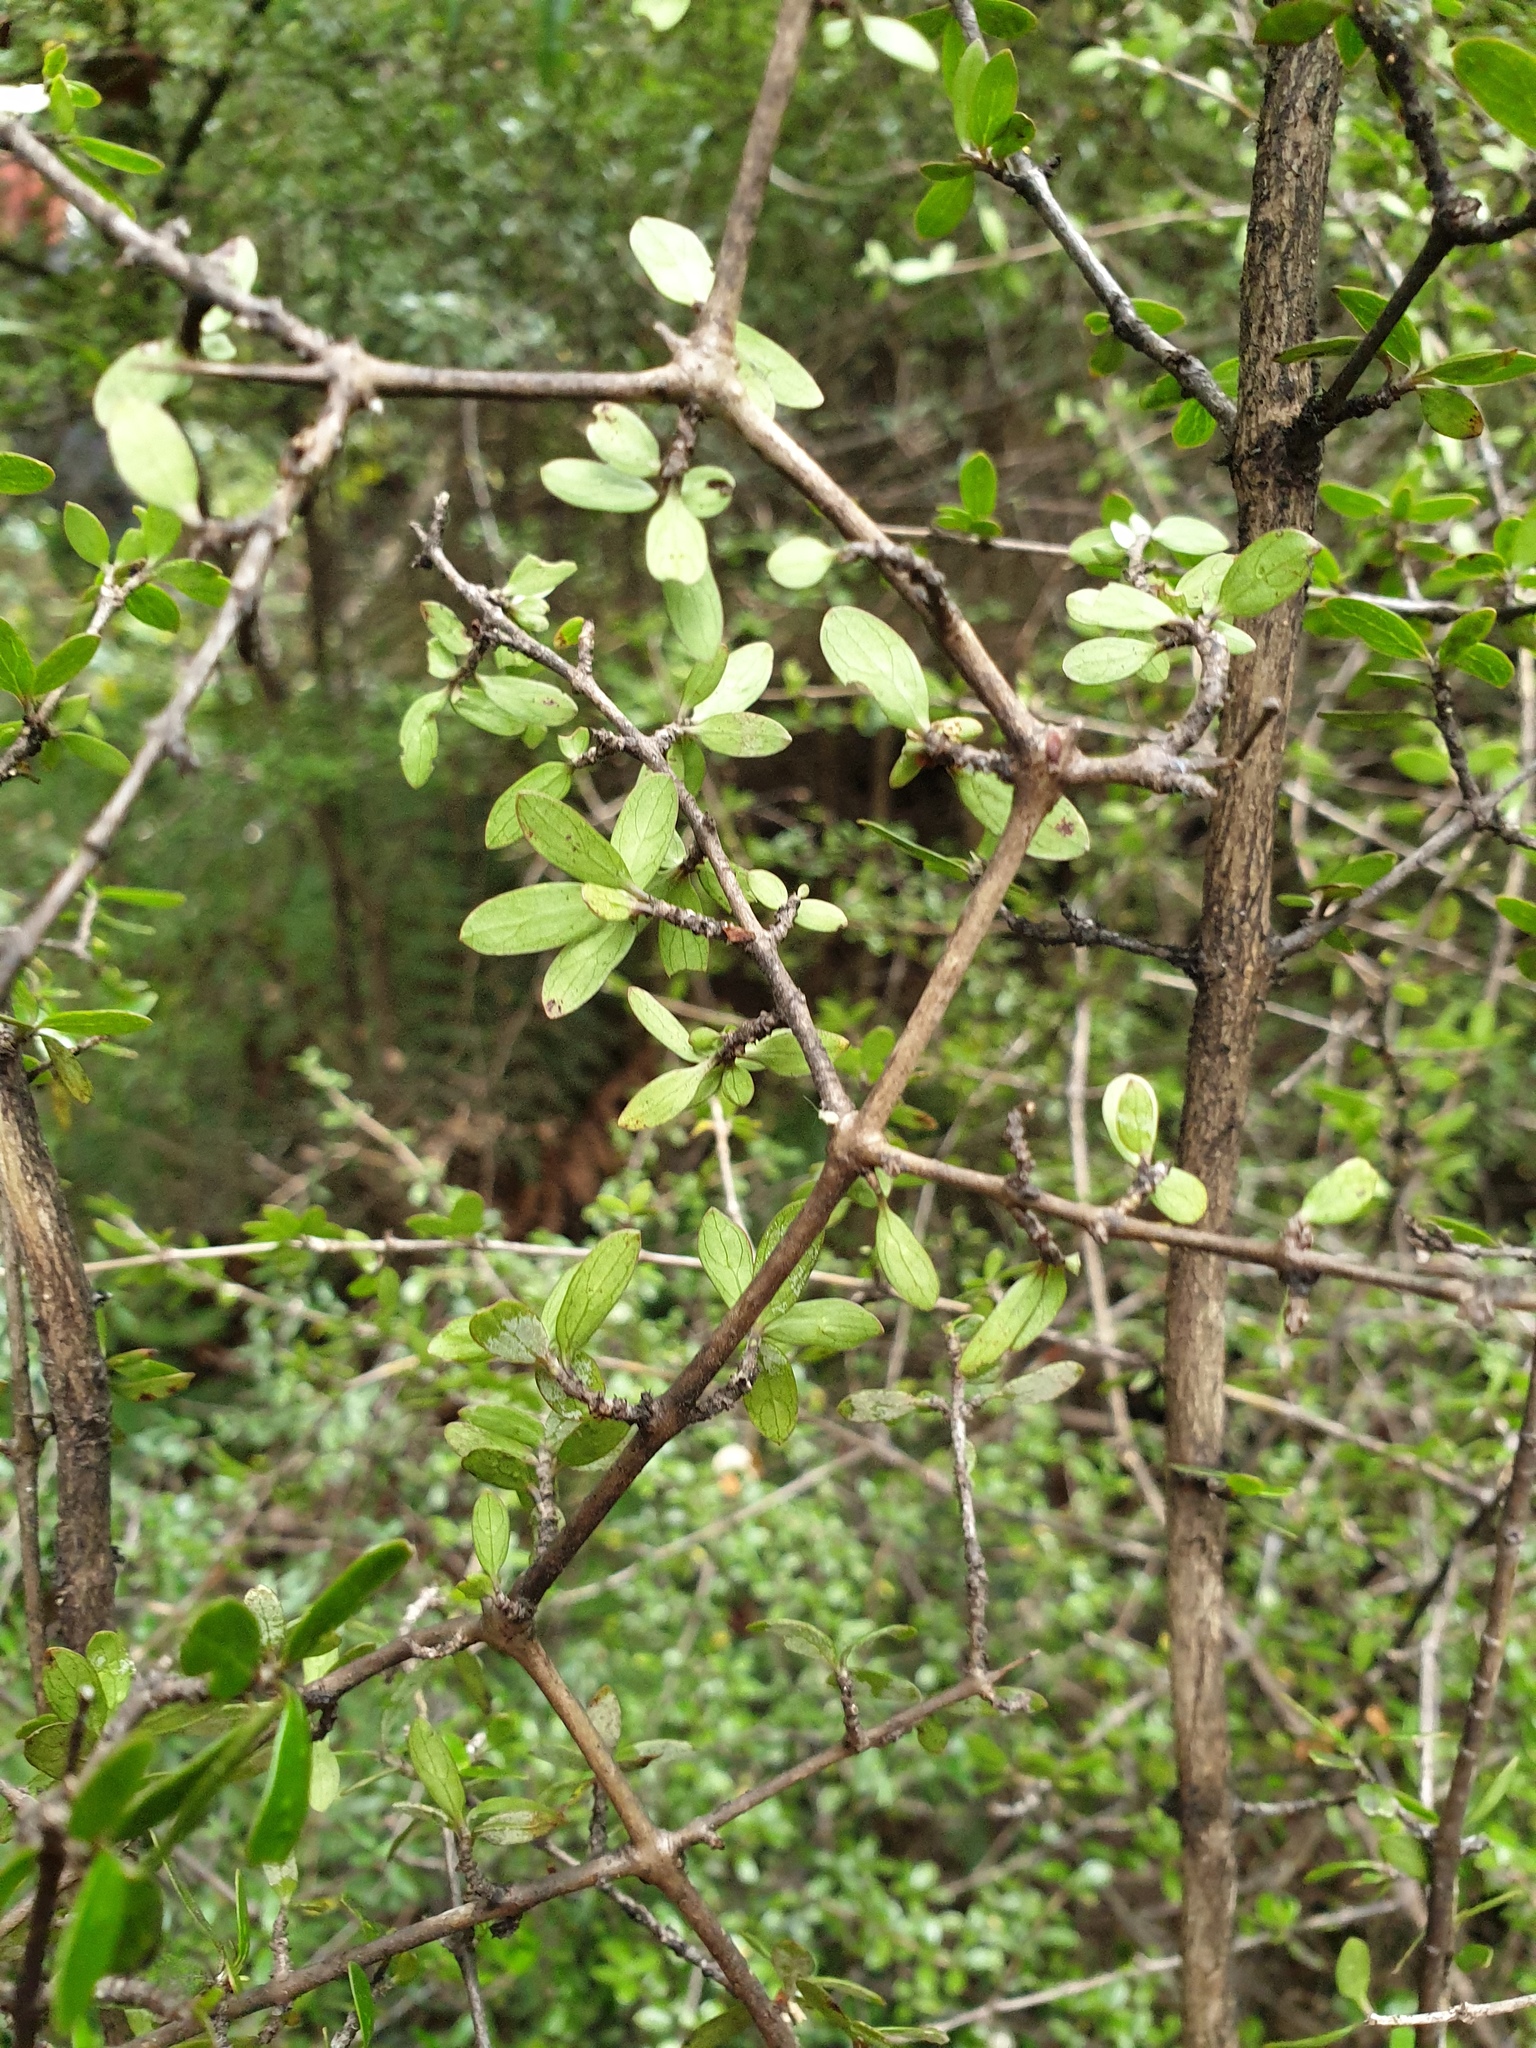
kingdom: Plantae
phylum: Tracheophyta
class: Magnoliopsida
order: Gentianales
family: Rubiaceae
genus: Coprosma
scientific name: Coprosma propinqua
